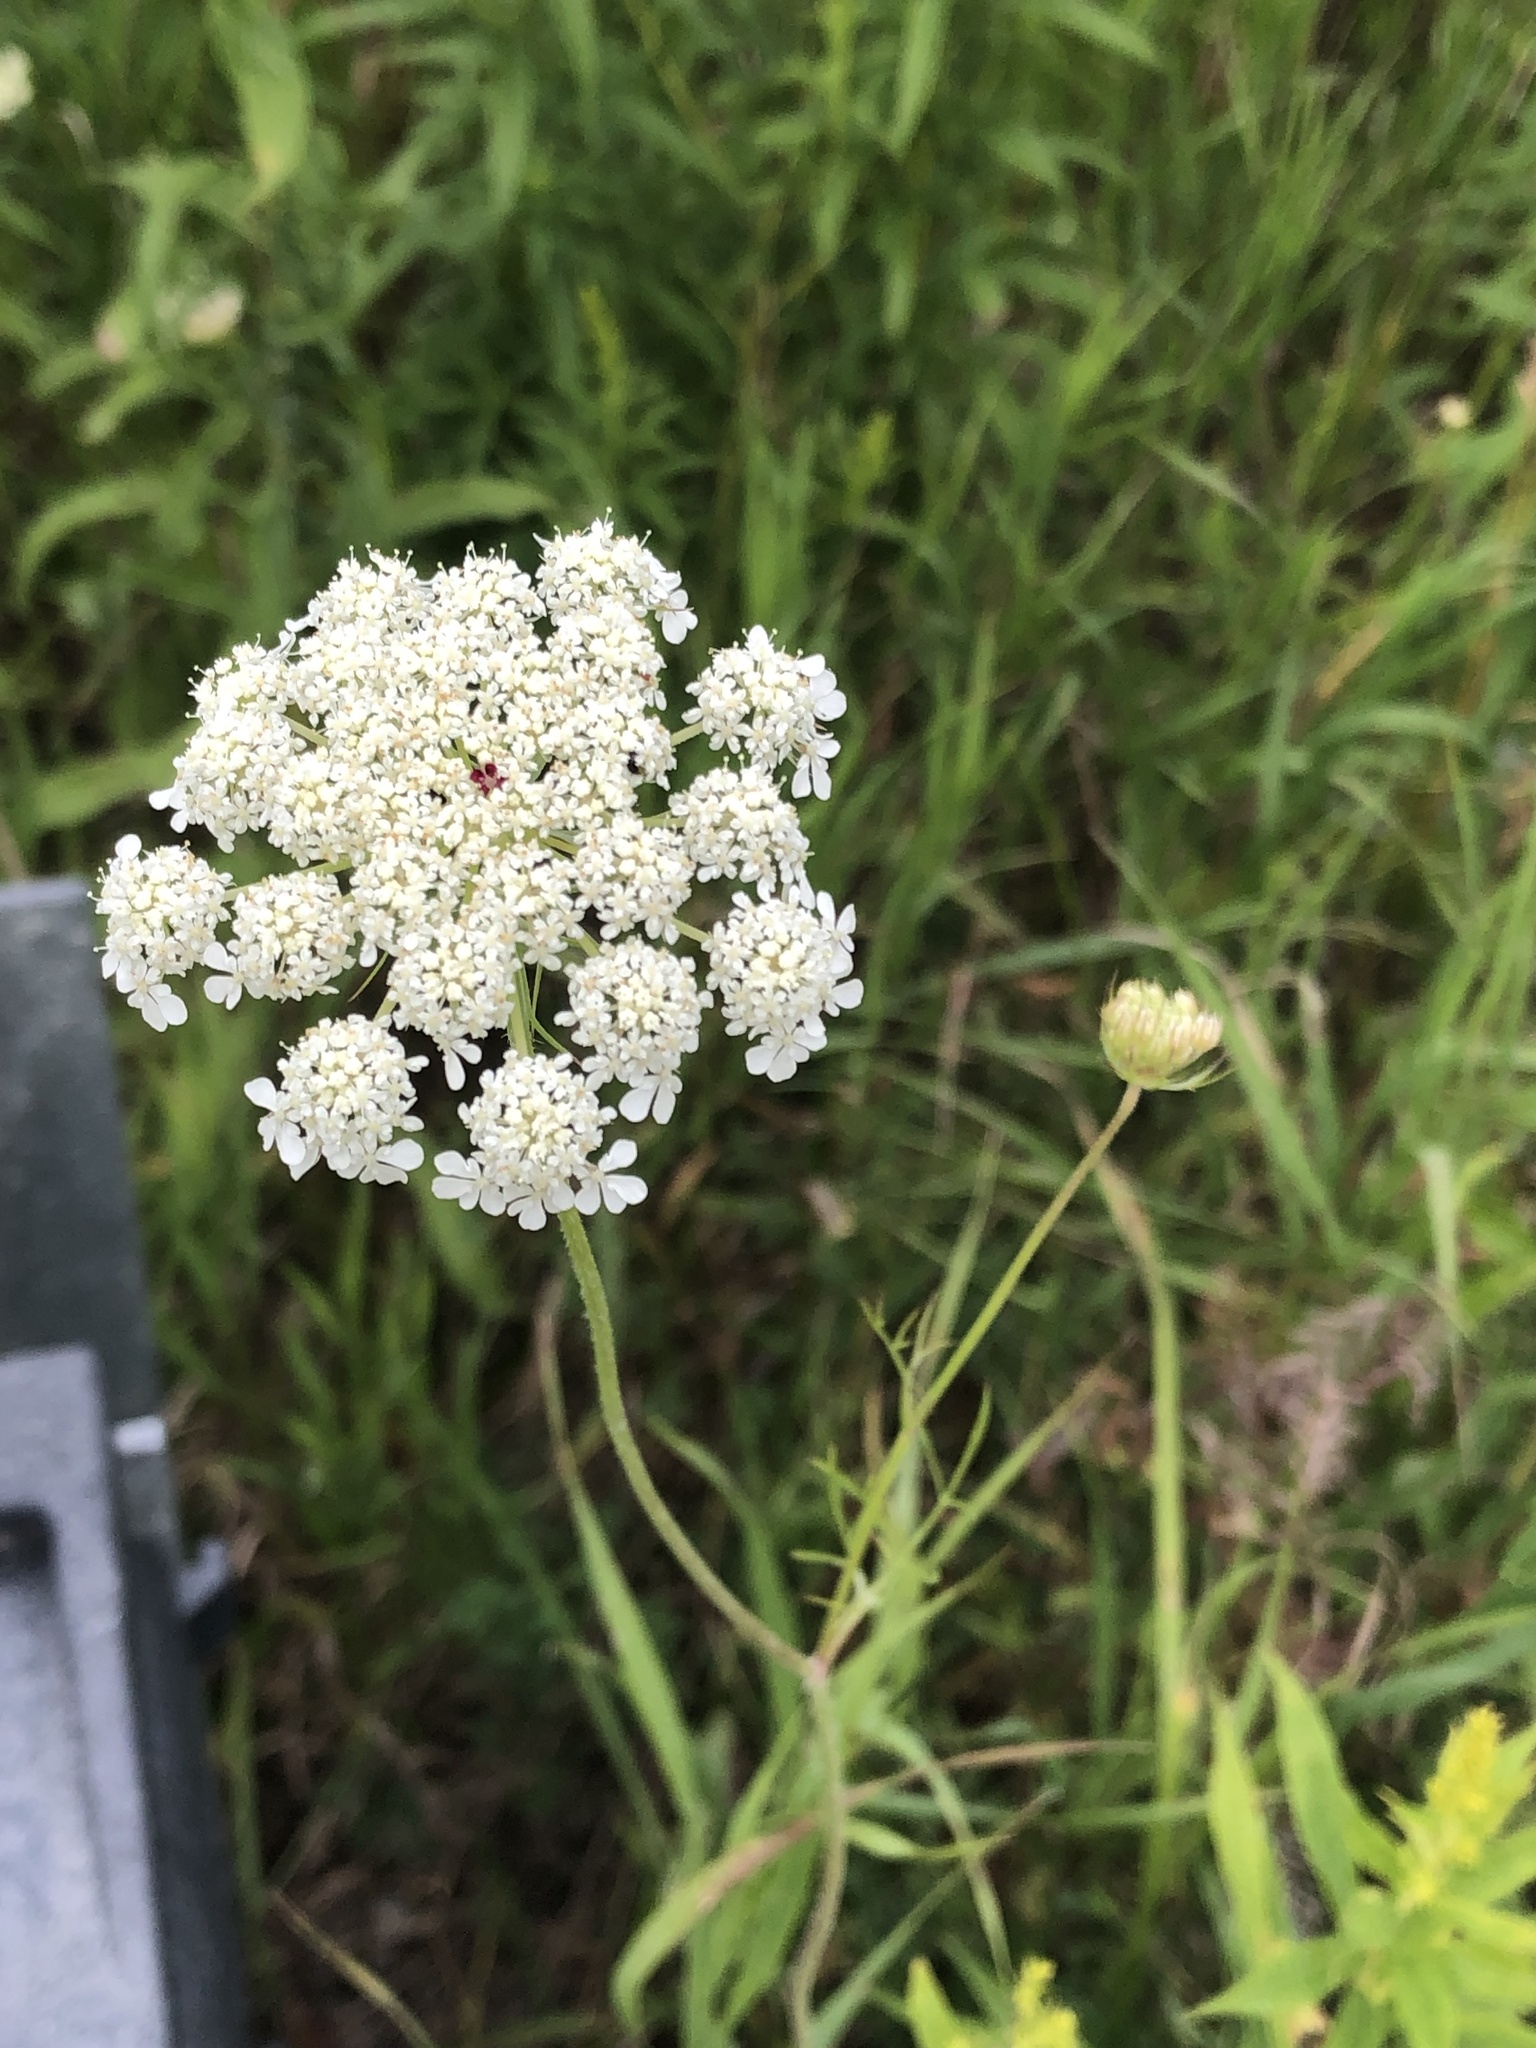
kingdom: Plantae
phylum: Tracheophyta
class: Magnoliopsida
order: Apiales
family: Apiaceae
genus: Daucus
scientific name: Daucus carota
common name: Wild carrot
